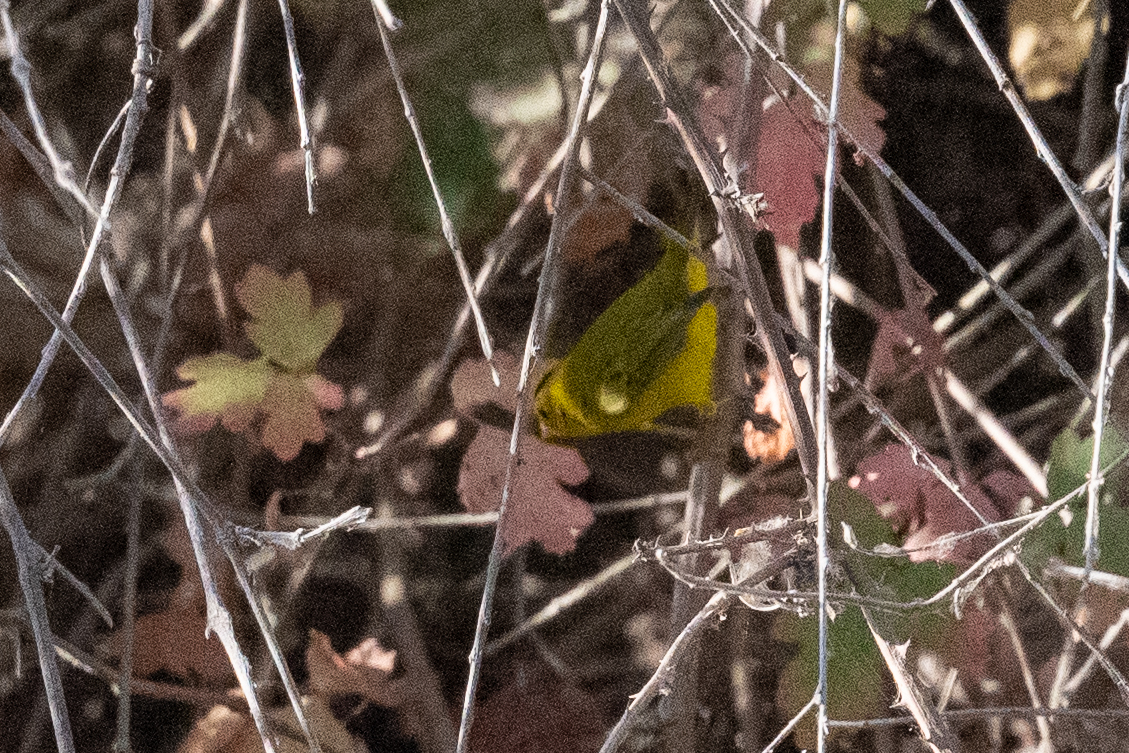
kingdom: Animalia
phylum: Chordata
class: Aves
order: Passeriformes
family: Parulidae
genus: Cardellina
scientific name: Cardellina pusilla
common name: Wilson's warbler
